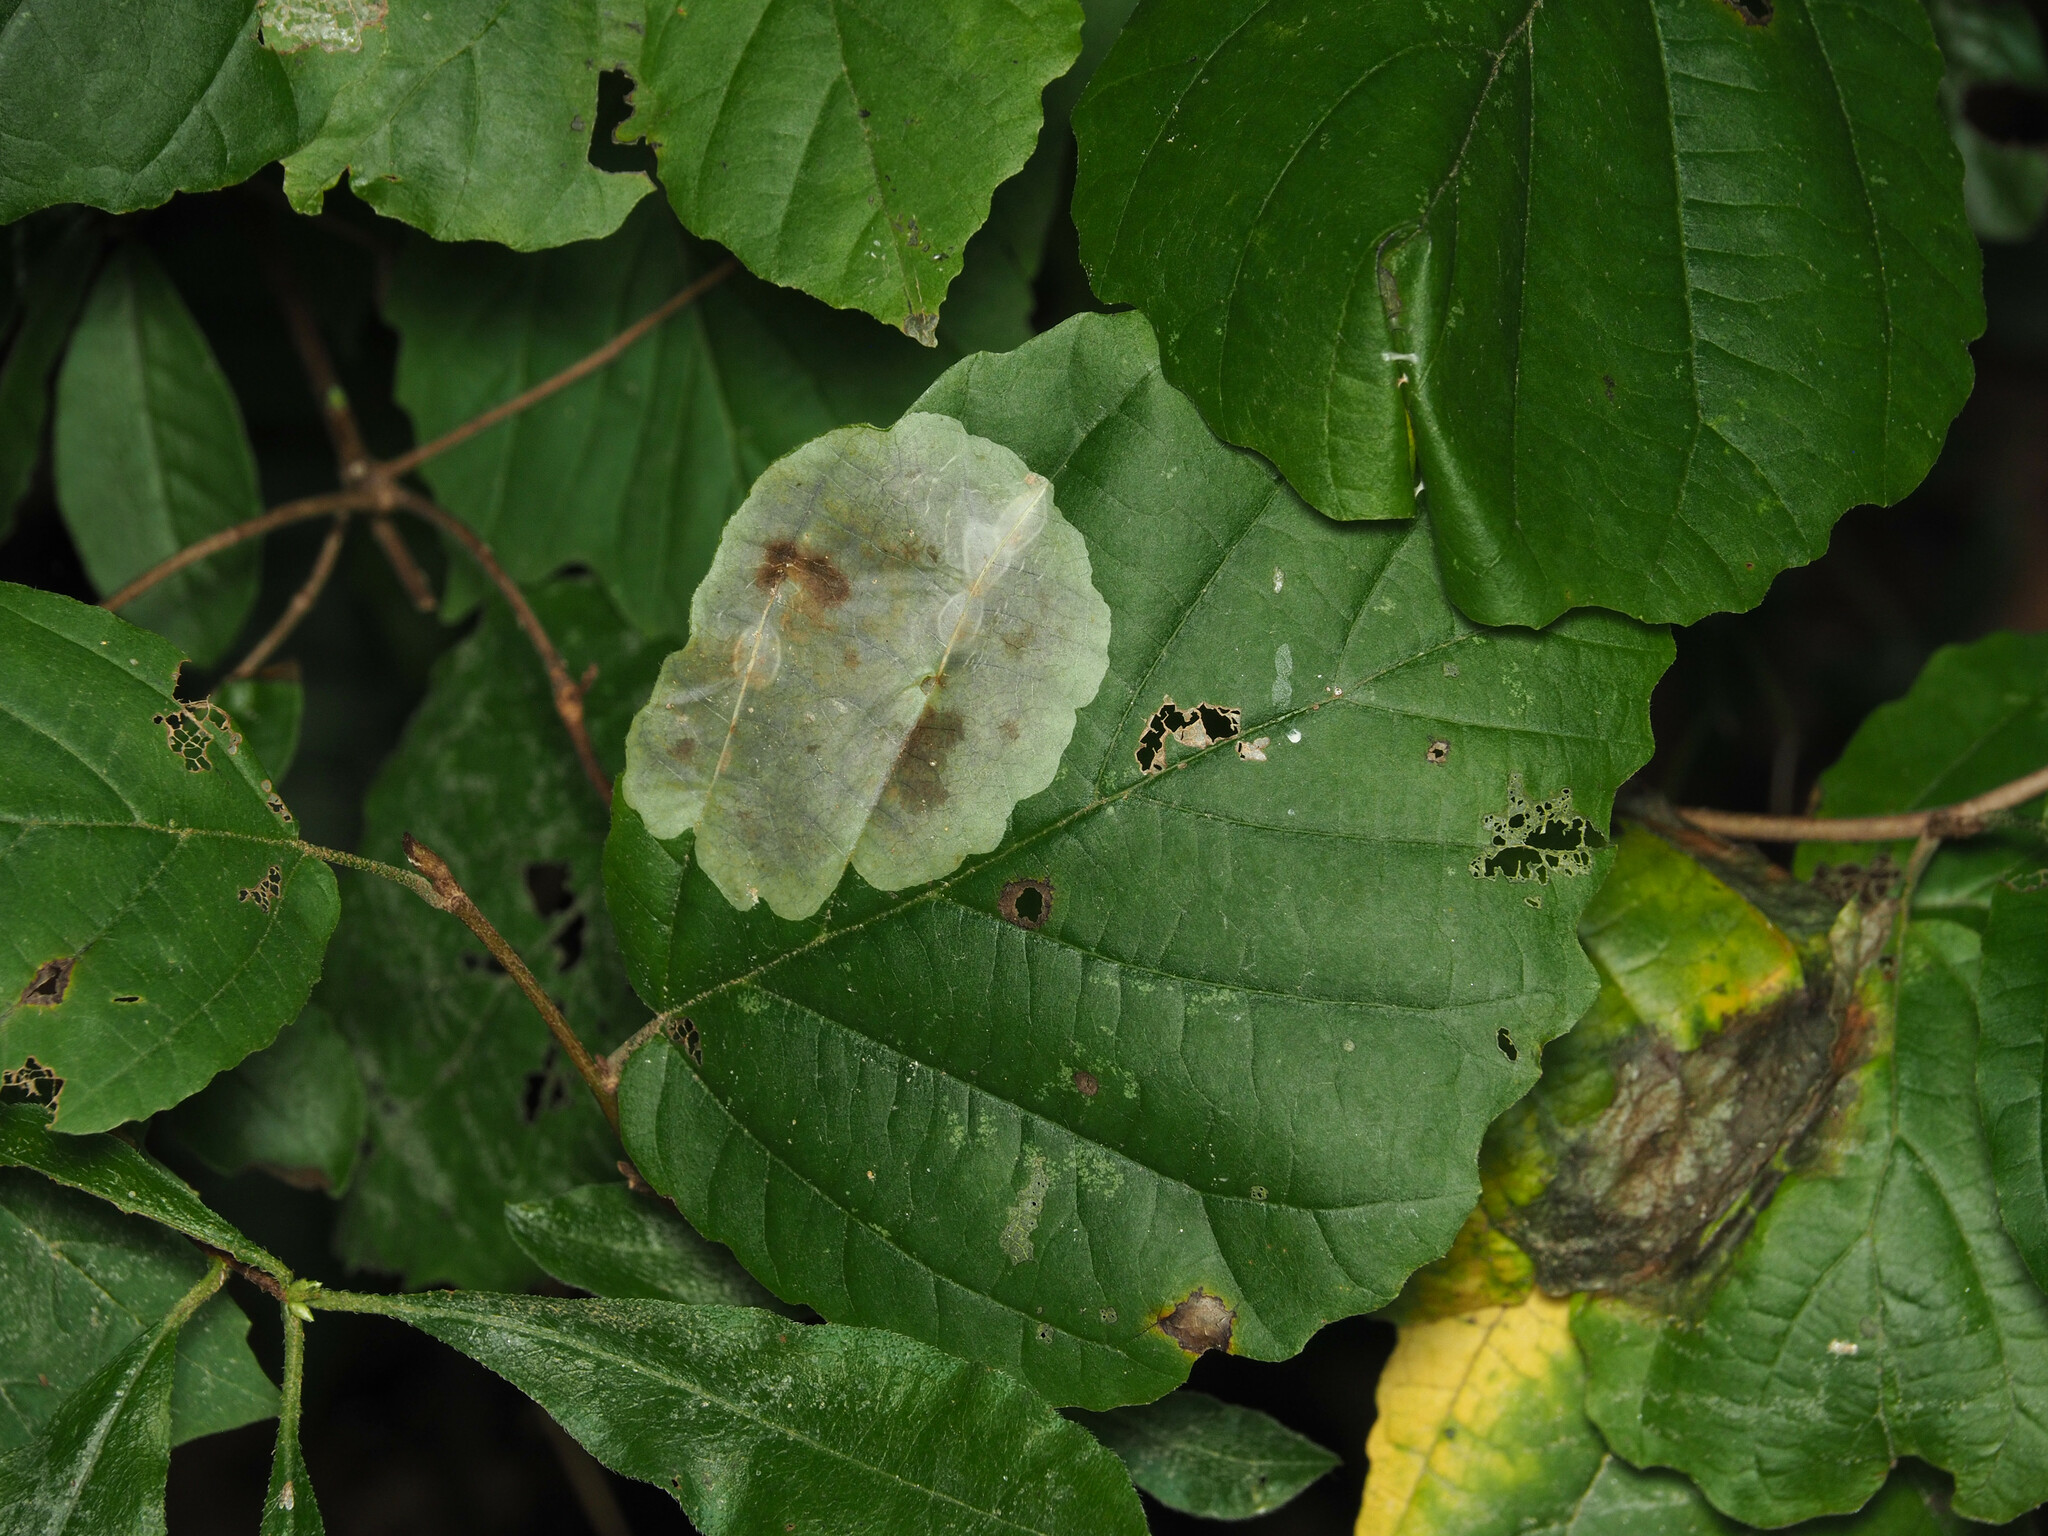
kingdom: Animalia
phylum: Arthropoda
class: Insecta
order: Lepidoptera
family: Gracillariidae
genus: Cameraria
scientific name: Cameraria hamameliella
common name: Witchhazel leafminer
